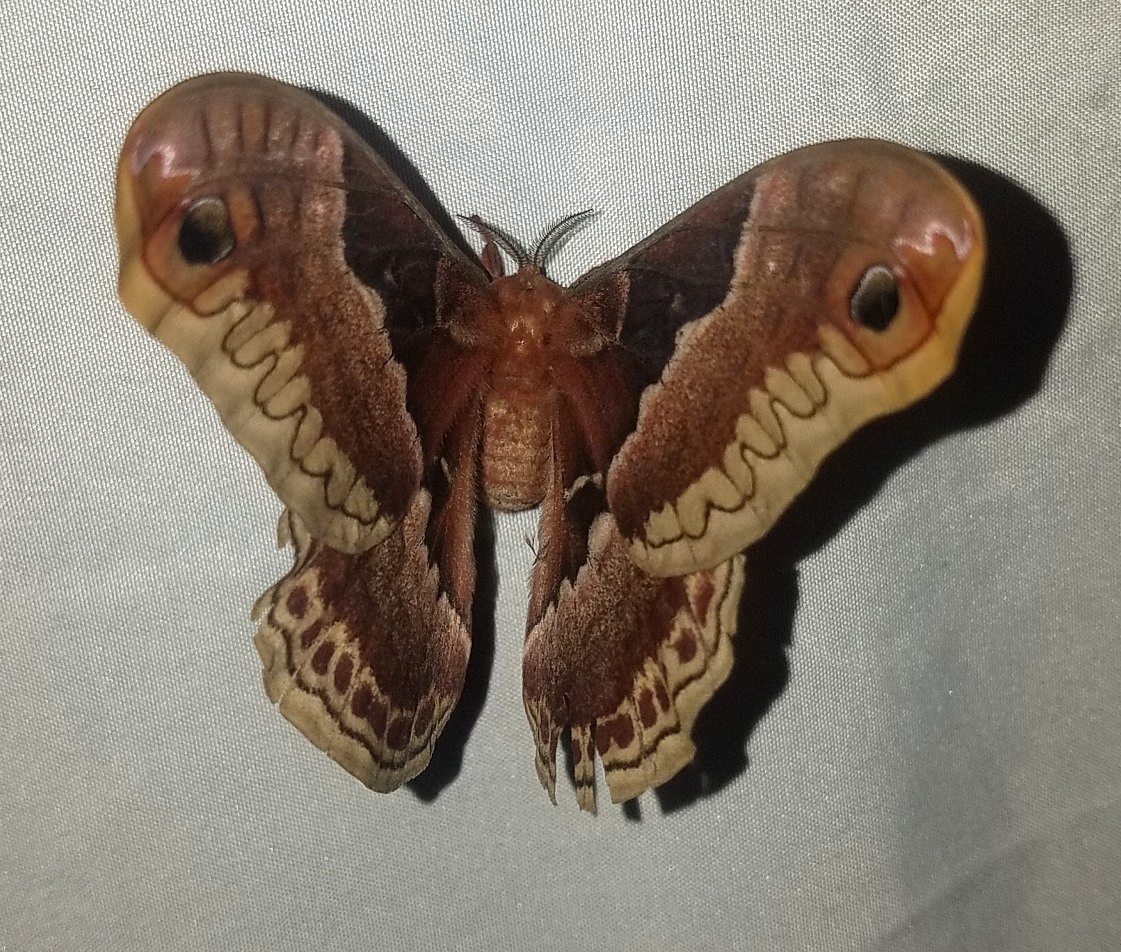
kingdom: Animalia
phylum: Arthropoda
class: Insecta
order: Lepidoptera
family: Saturniidae
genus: Callosamia
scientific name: Callosamia promethea
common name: Promethea silkmoth
